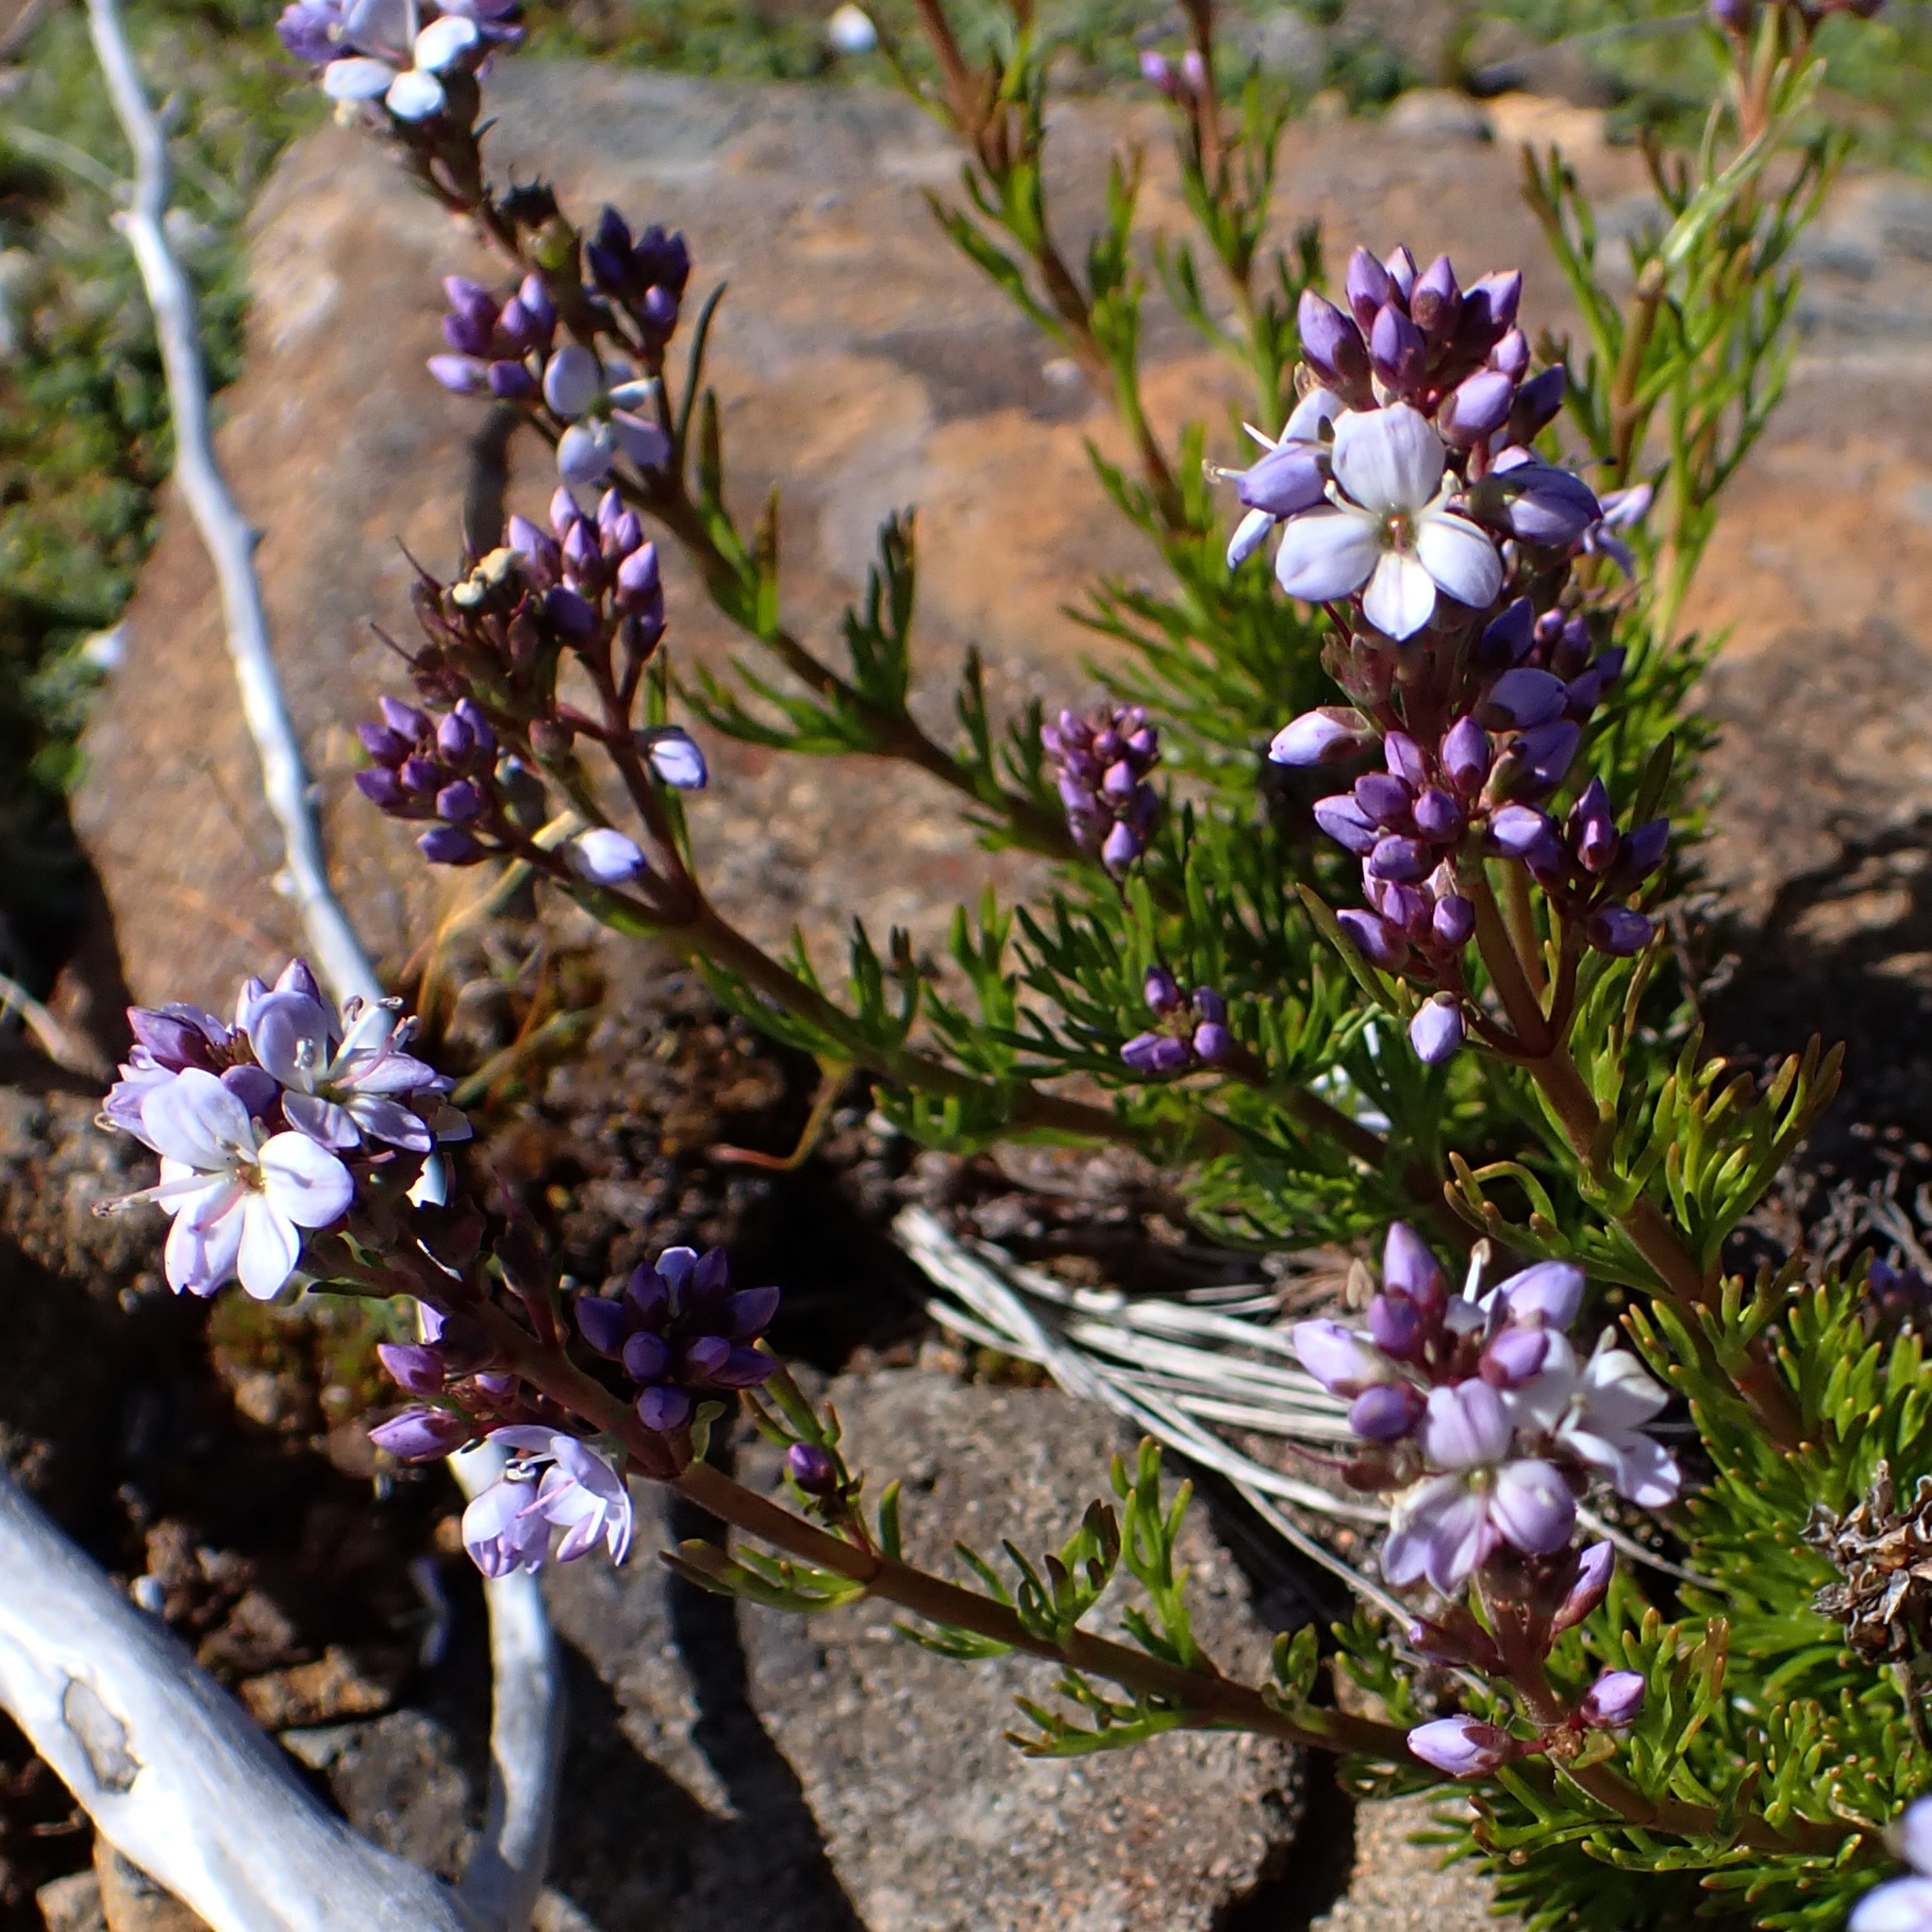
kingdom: Plantae
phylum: Tracheophyta
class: Magnoliopsida
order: Lamiales
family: Plantaginaceae
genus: Veronica
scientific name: Veronica nivea
